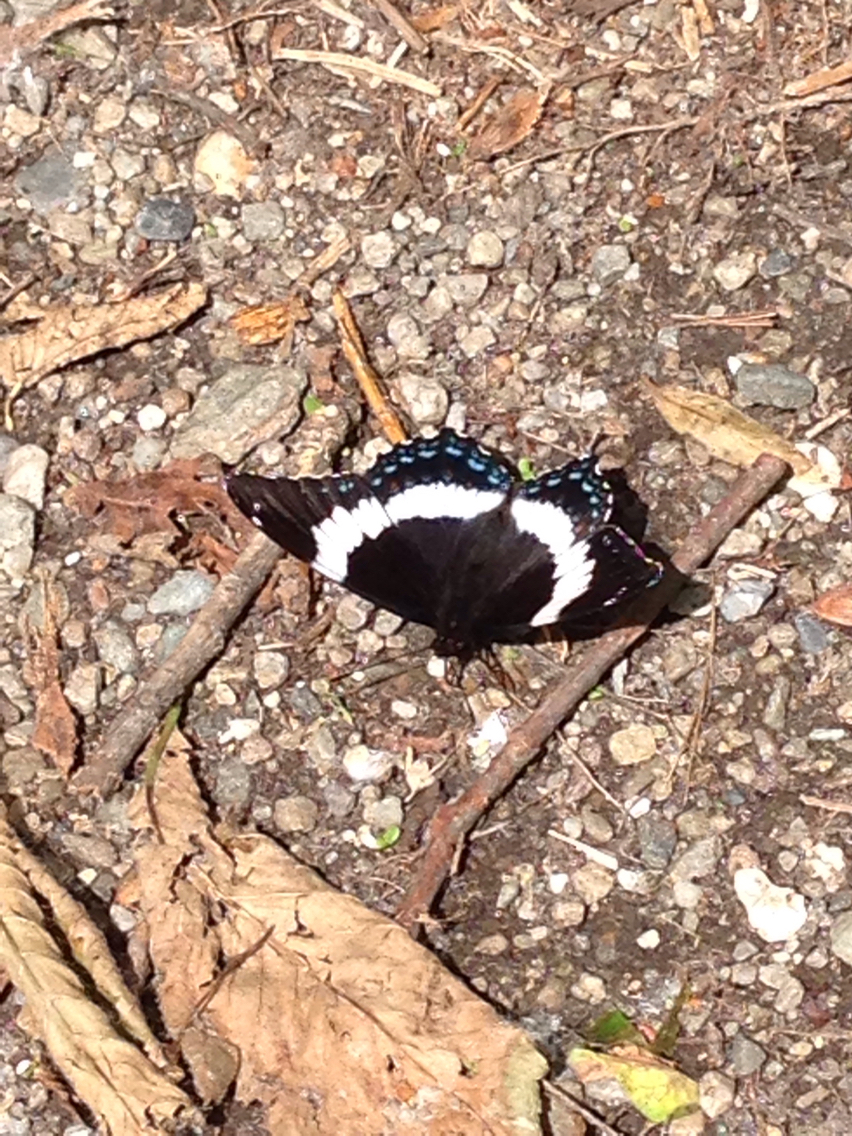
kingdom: Animalia
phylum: Arthropoda
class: Insecta
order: Lepidoptera
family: Nymphalidae
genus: Limenitis
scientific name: Limenitis arthemis
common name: Red-spotted admiral
